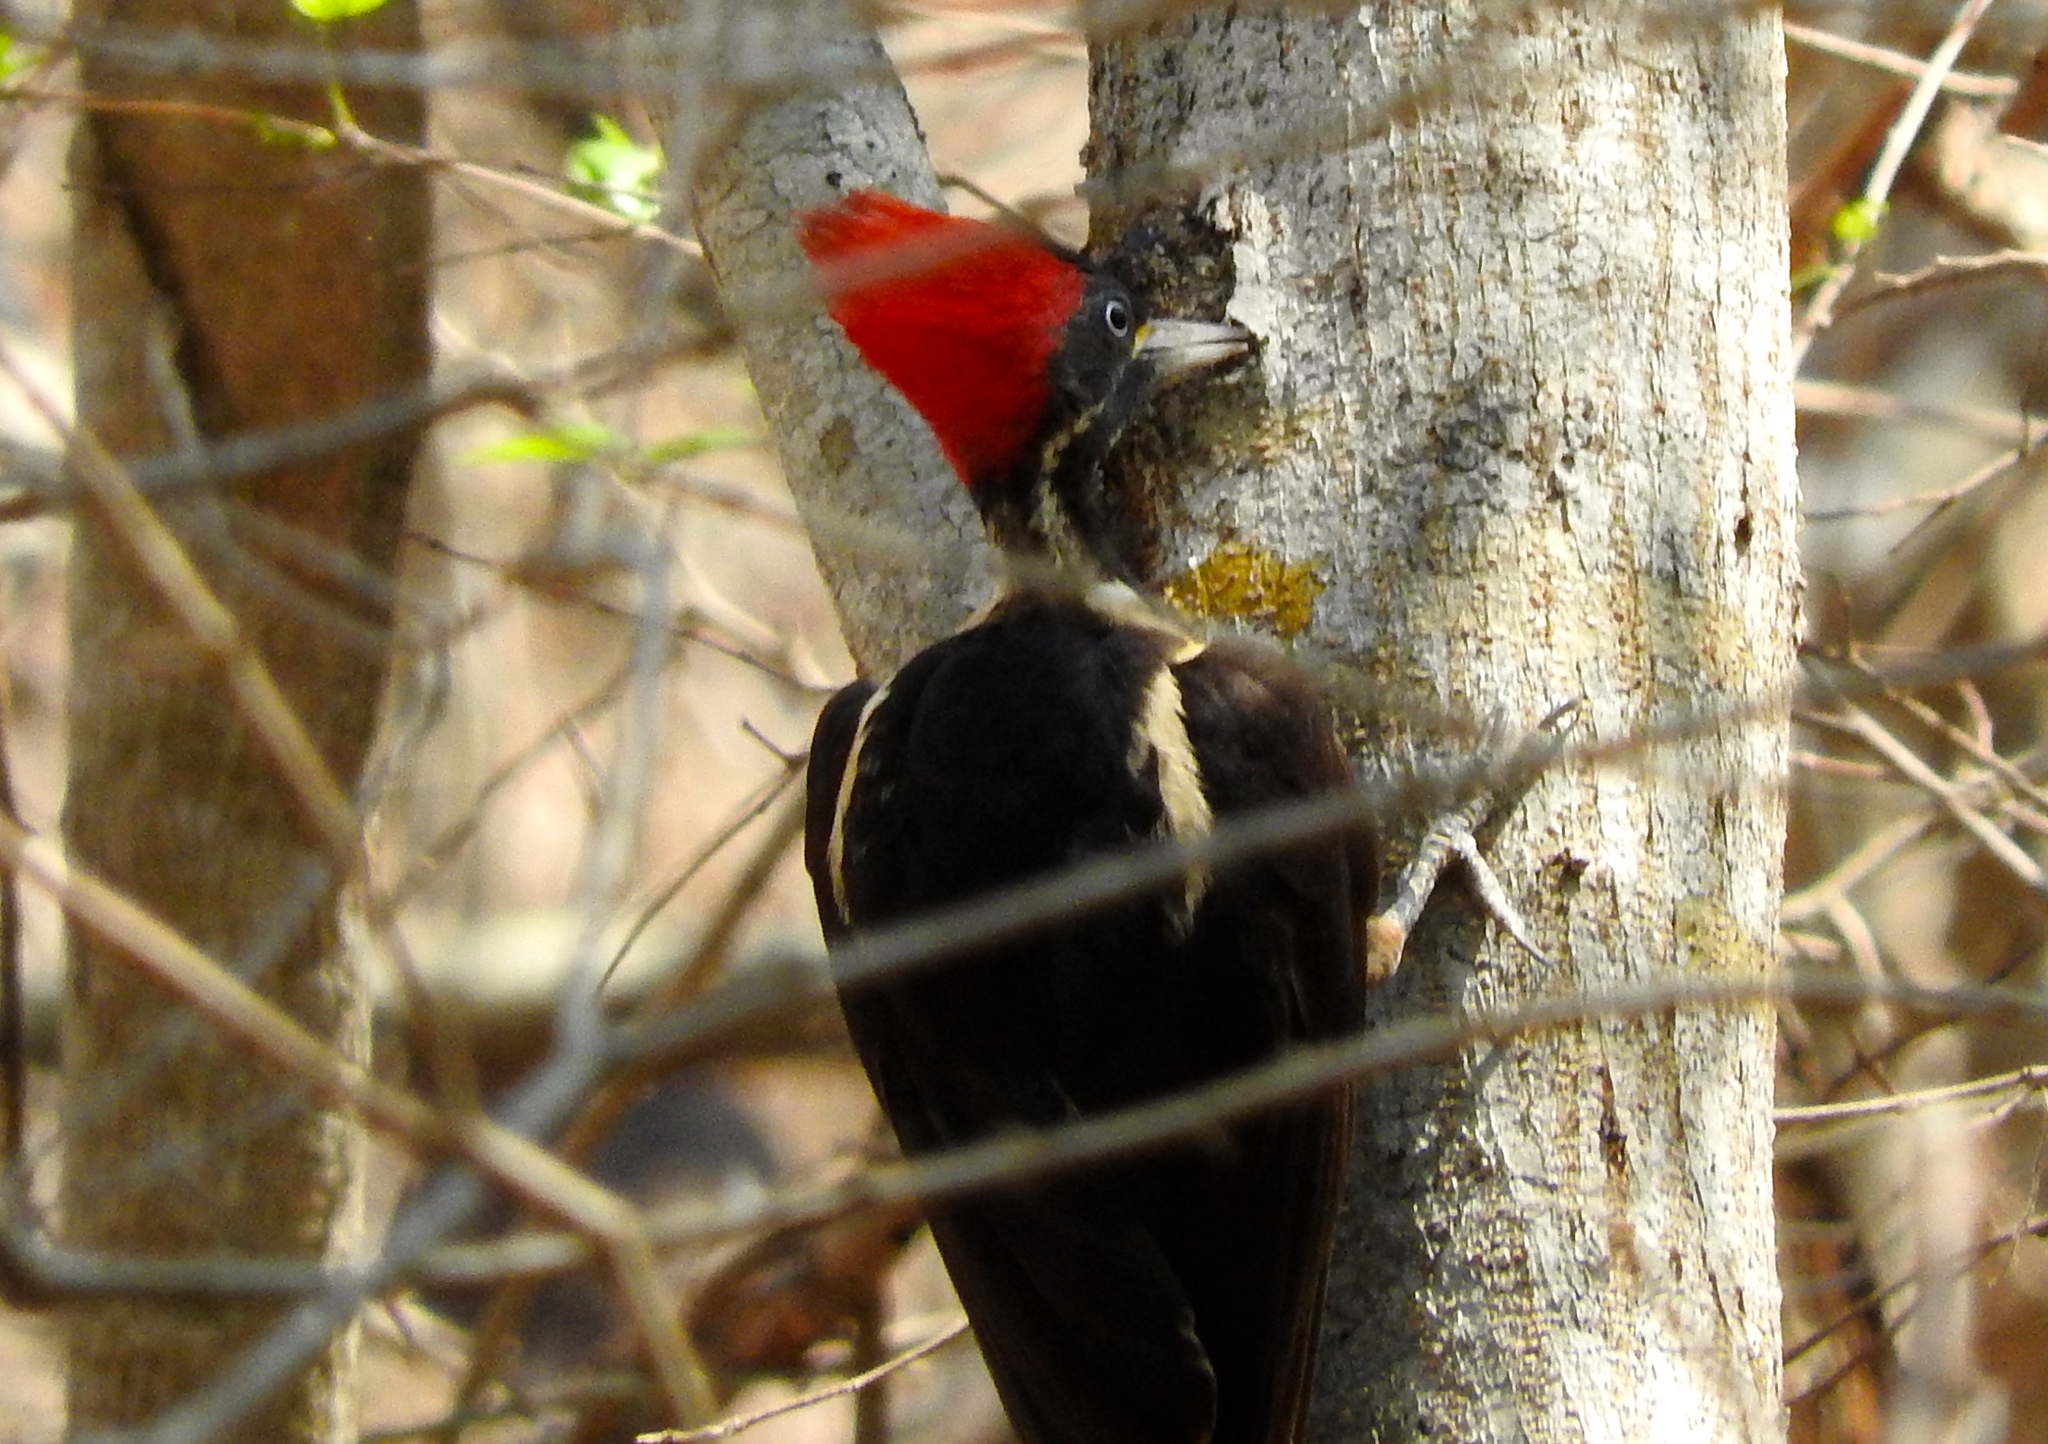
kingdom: Animalia
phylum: Chordata
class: Aves
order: Piciformes
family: Picidae
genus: Dryocopus
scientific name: Dryocopus lineatus
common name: Lineated woodpecker
